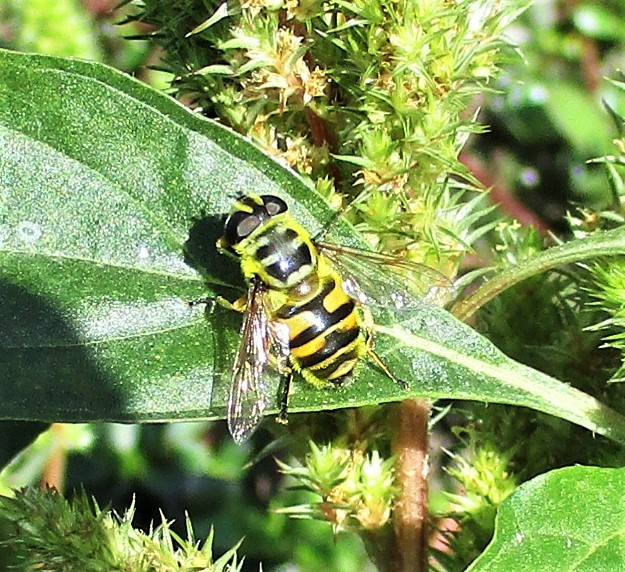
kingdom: Animalia
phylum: Arthropoda
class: Insecta
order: Diptera
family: Syrphidae
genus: Myathropa
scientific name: Myathropa florea
